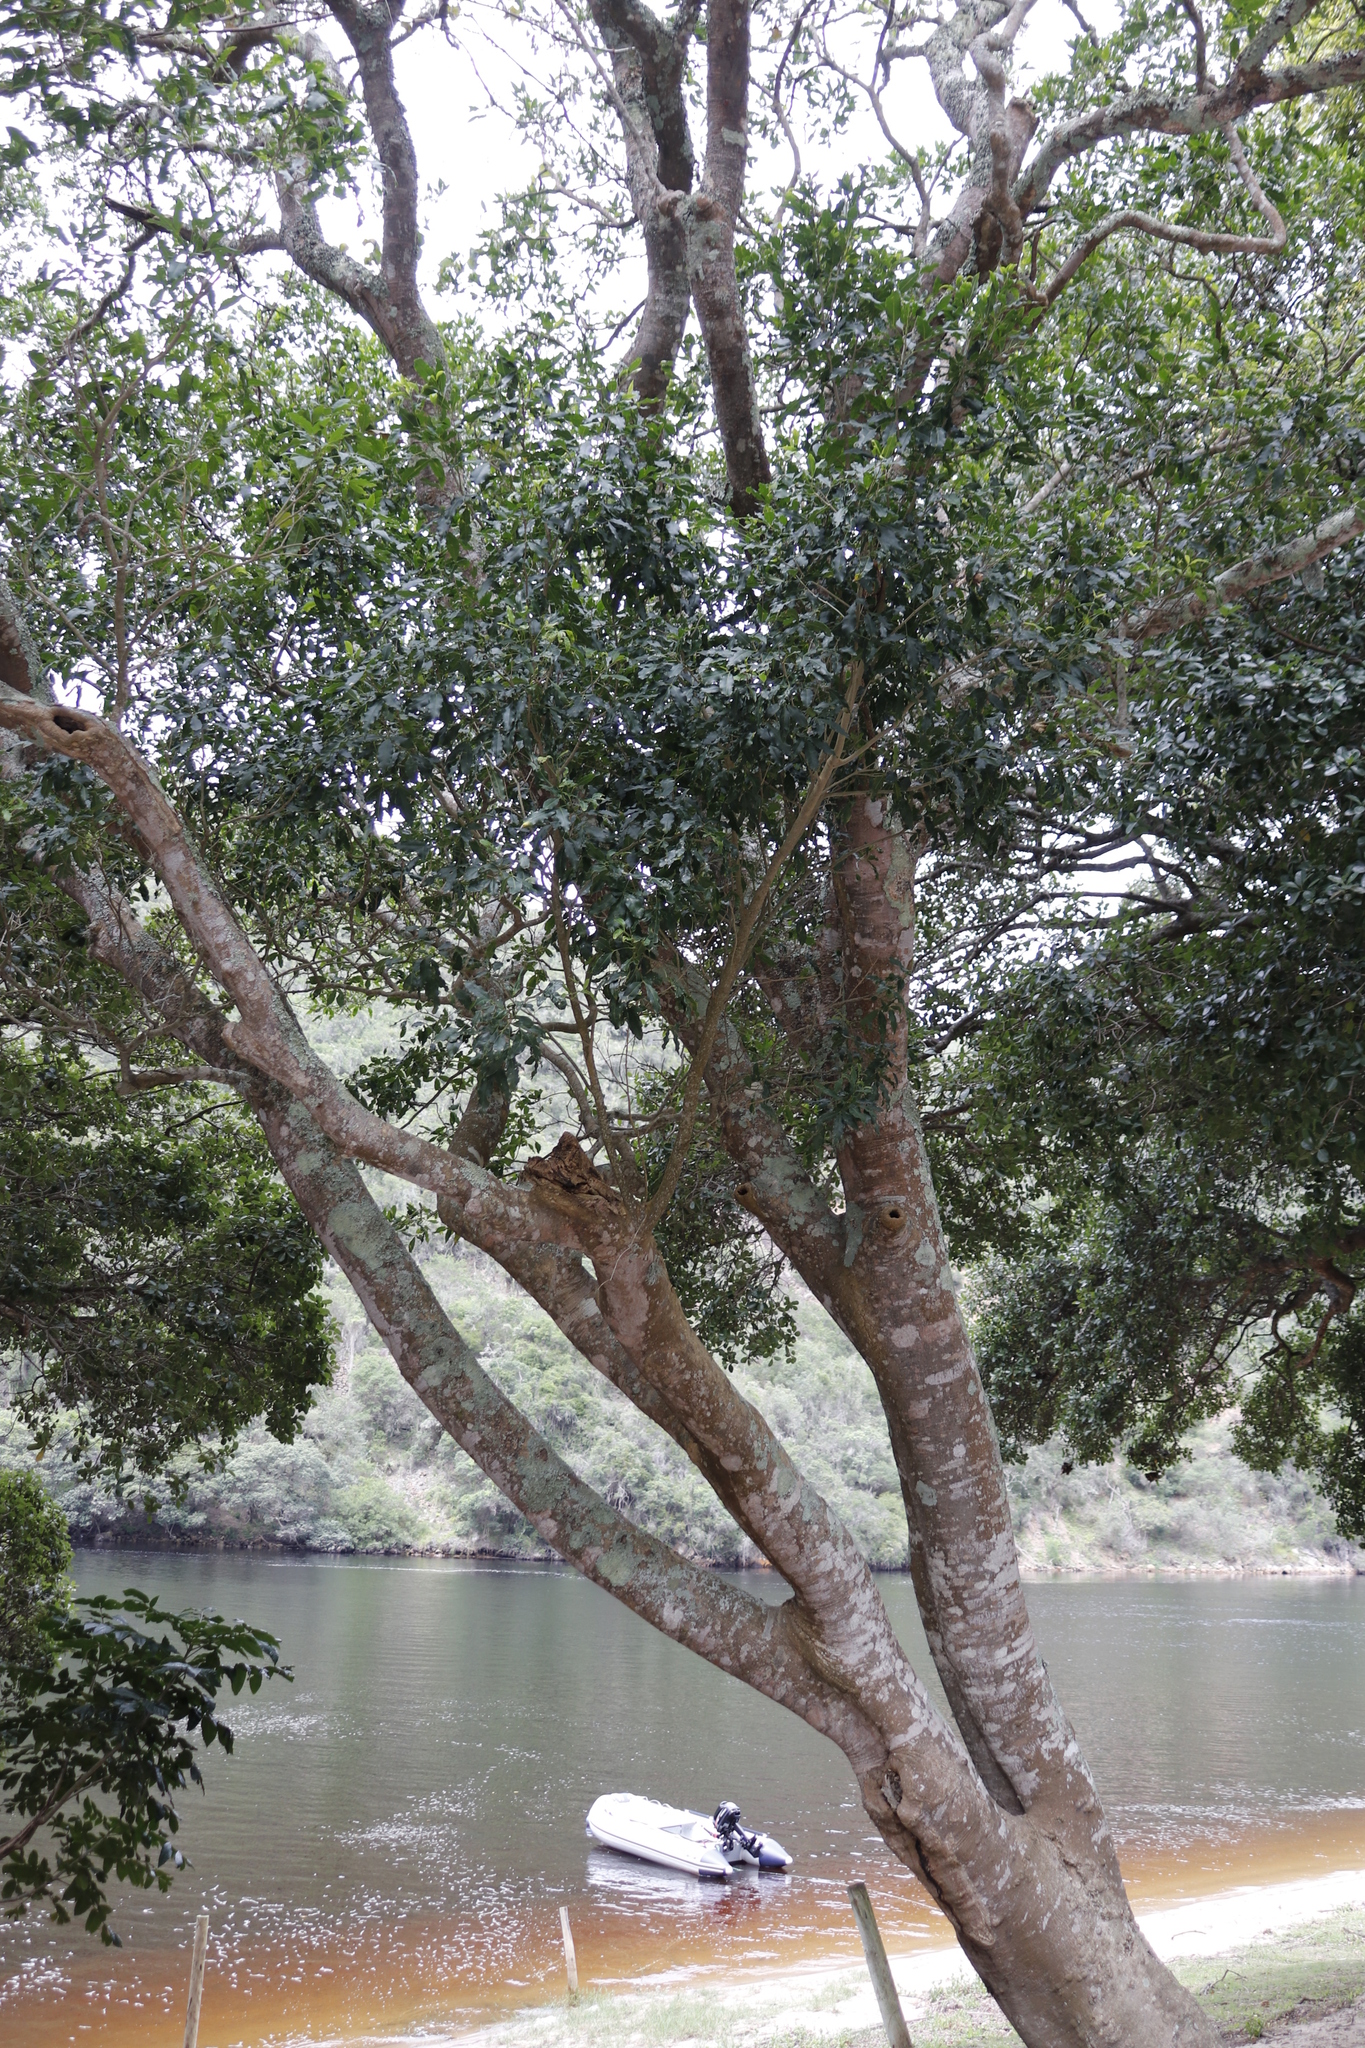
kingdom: Plantae
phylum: Tracheophyta
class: Magnoliopsida
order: Sapindales
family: Anacardiaceae
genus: Searsia
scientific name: Searsia chirindensis
